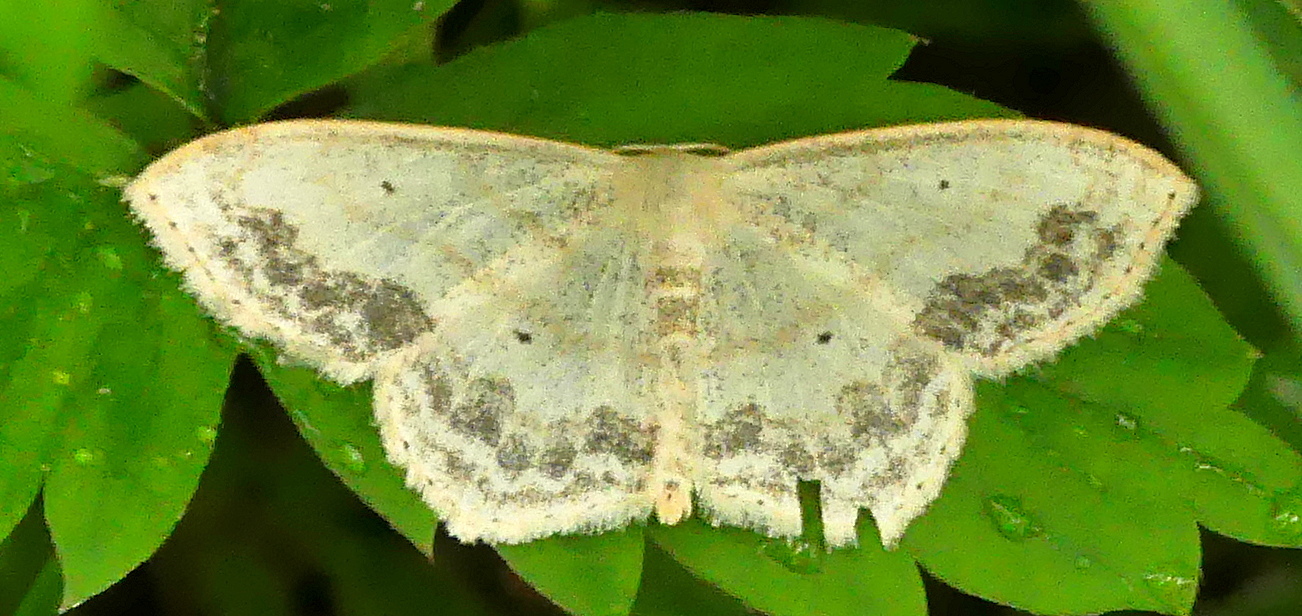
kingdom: Animalia
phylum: Arthropoda
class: Insecta
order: Lepidoptera
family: Geometridae
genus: Scopula
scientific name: Scopula limboundata
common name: Large lace border
